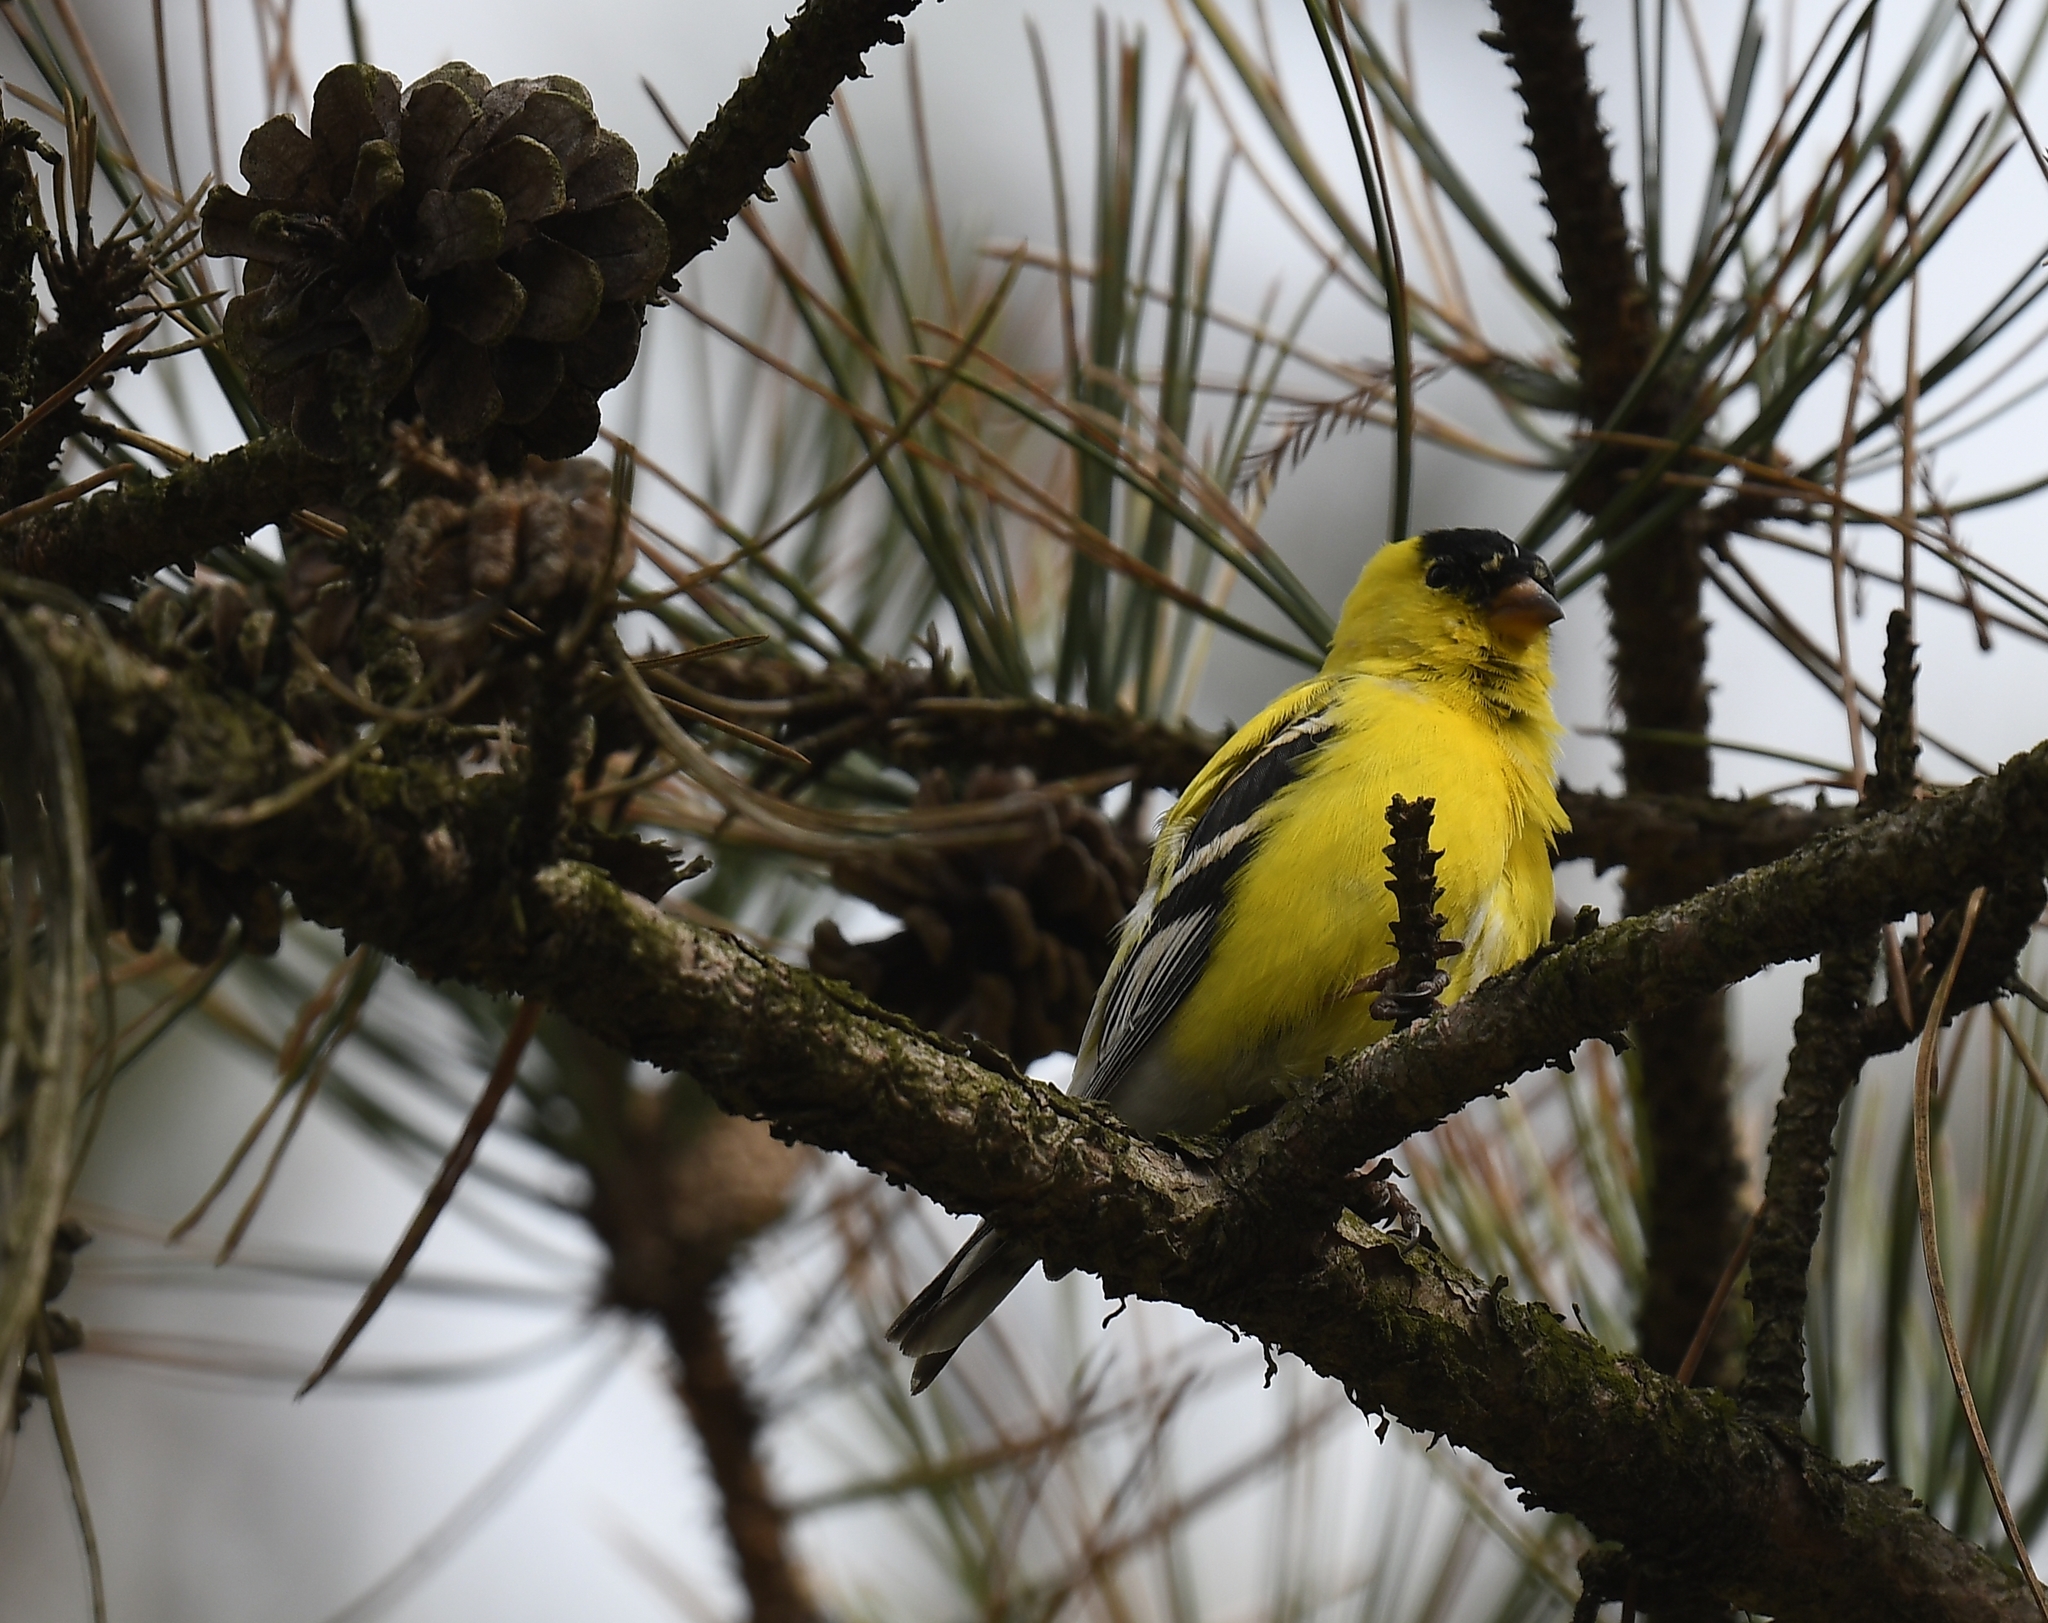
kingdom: Animalia
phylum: Chordata
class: Aves
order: Passeriformes
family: Fringillidae
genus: Spinus
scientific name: Spinus tristis
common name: American goldfinch
